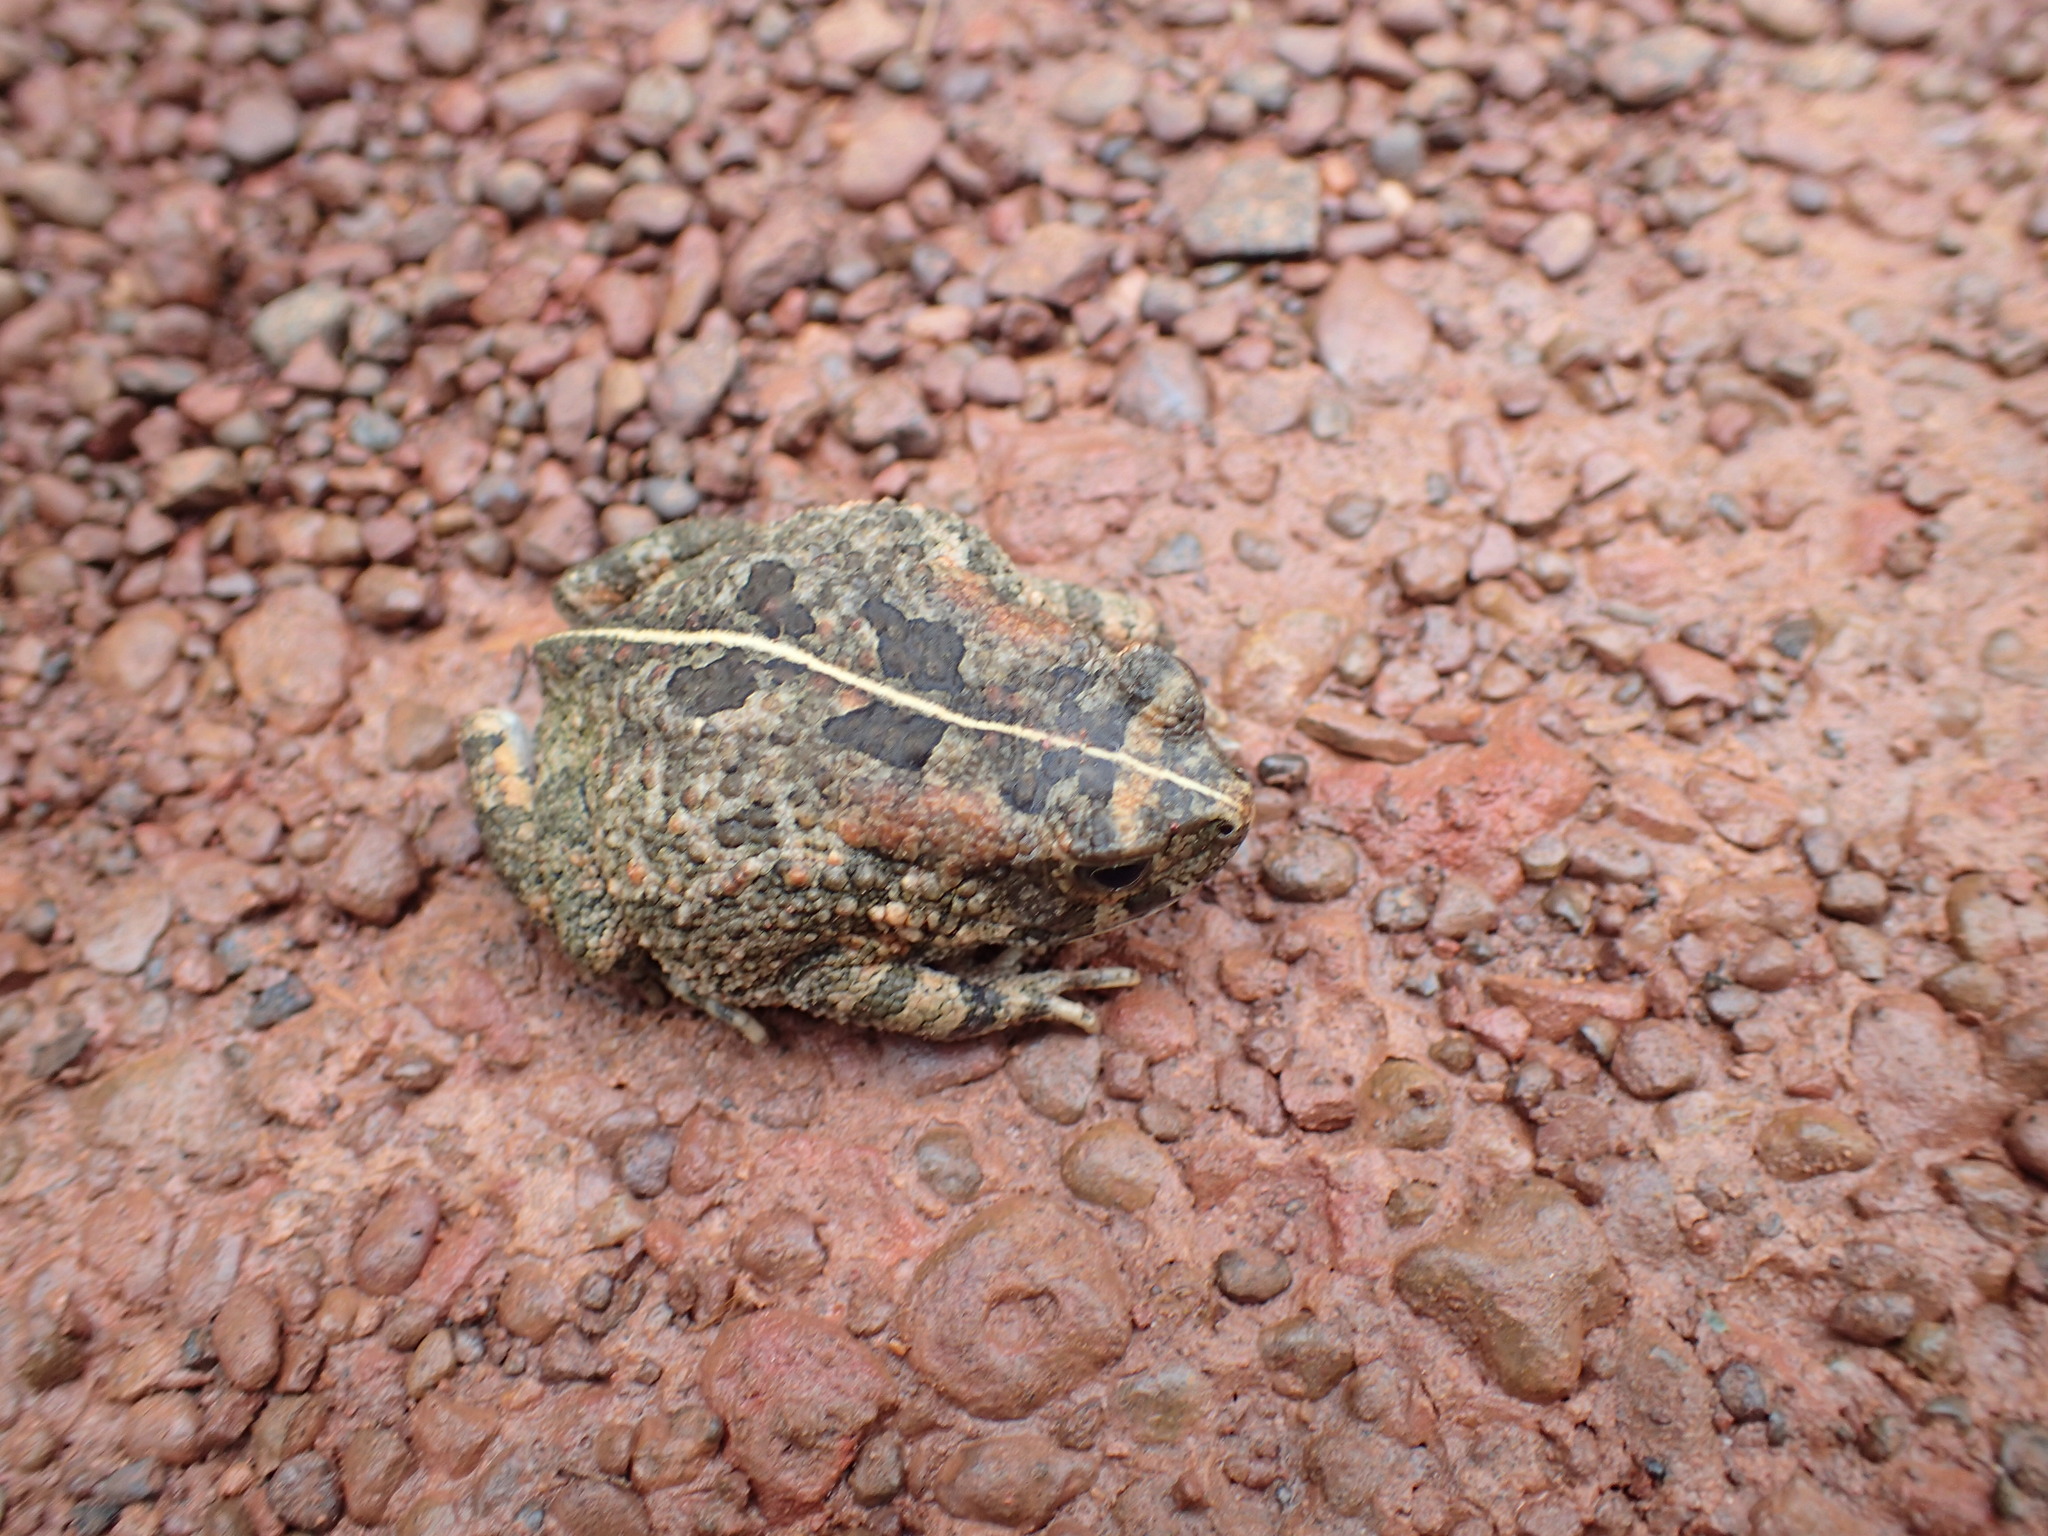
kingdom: Animalia
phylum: Chordata
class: Amphibia
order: Anura
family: Bufonidae
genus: Sclerophrys
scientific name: Sclerophrys pusilla
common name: Merten's striped toad
